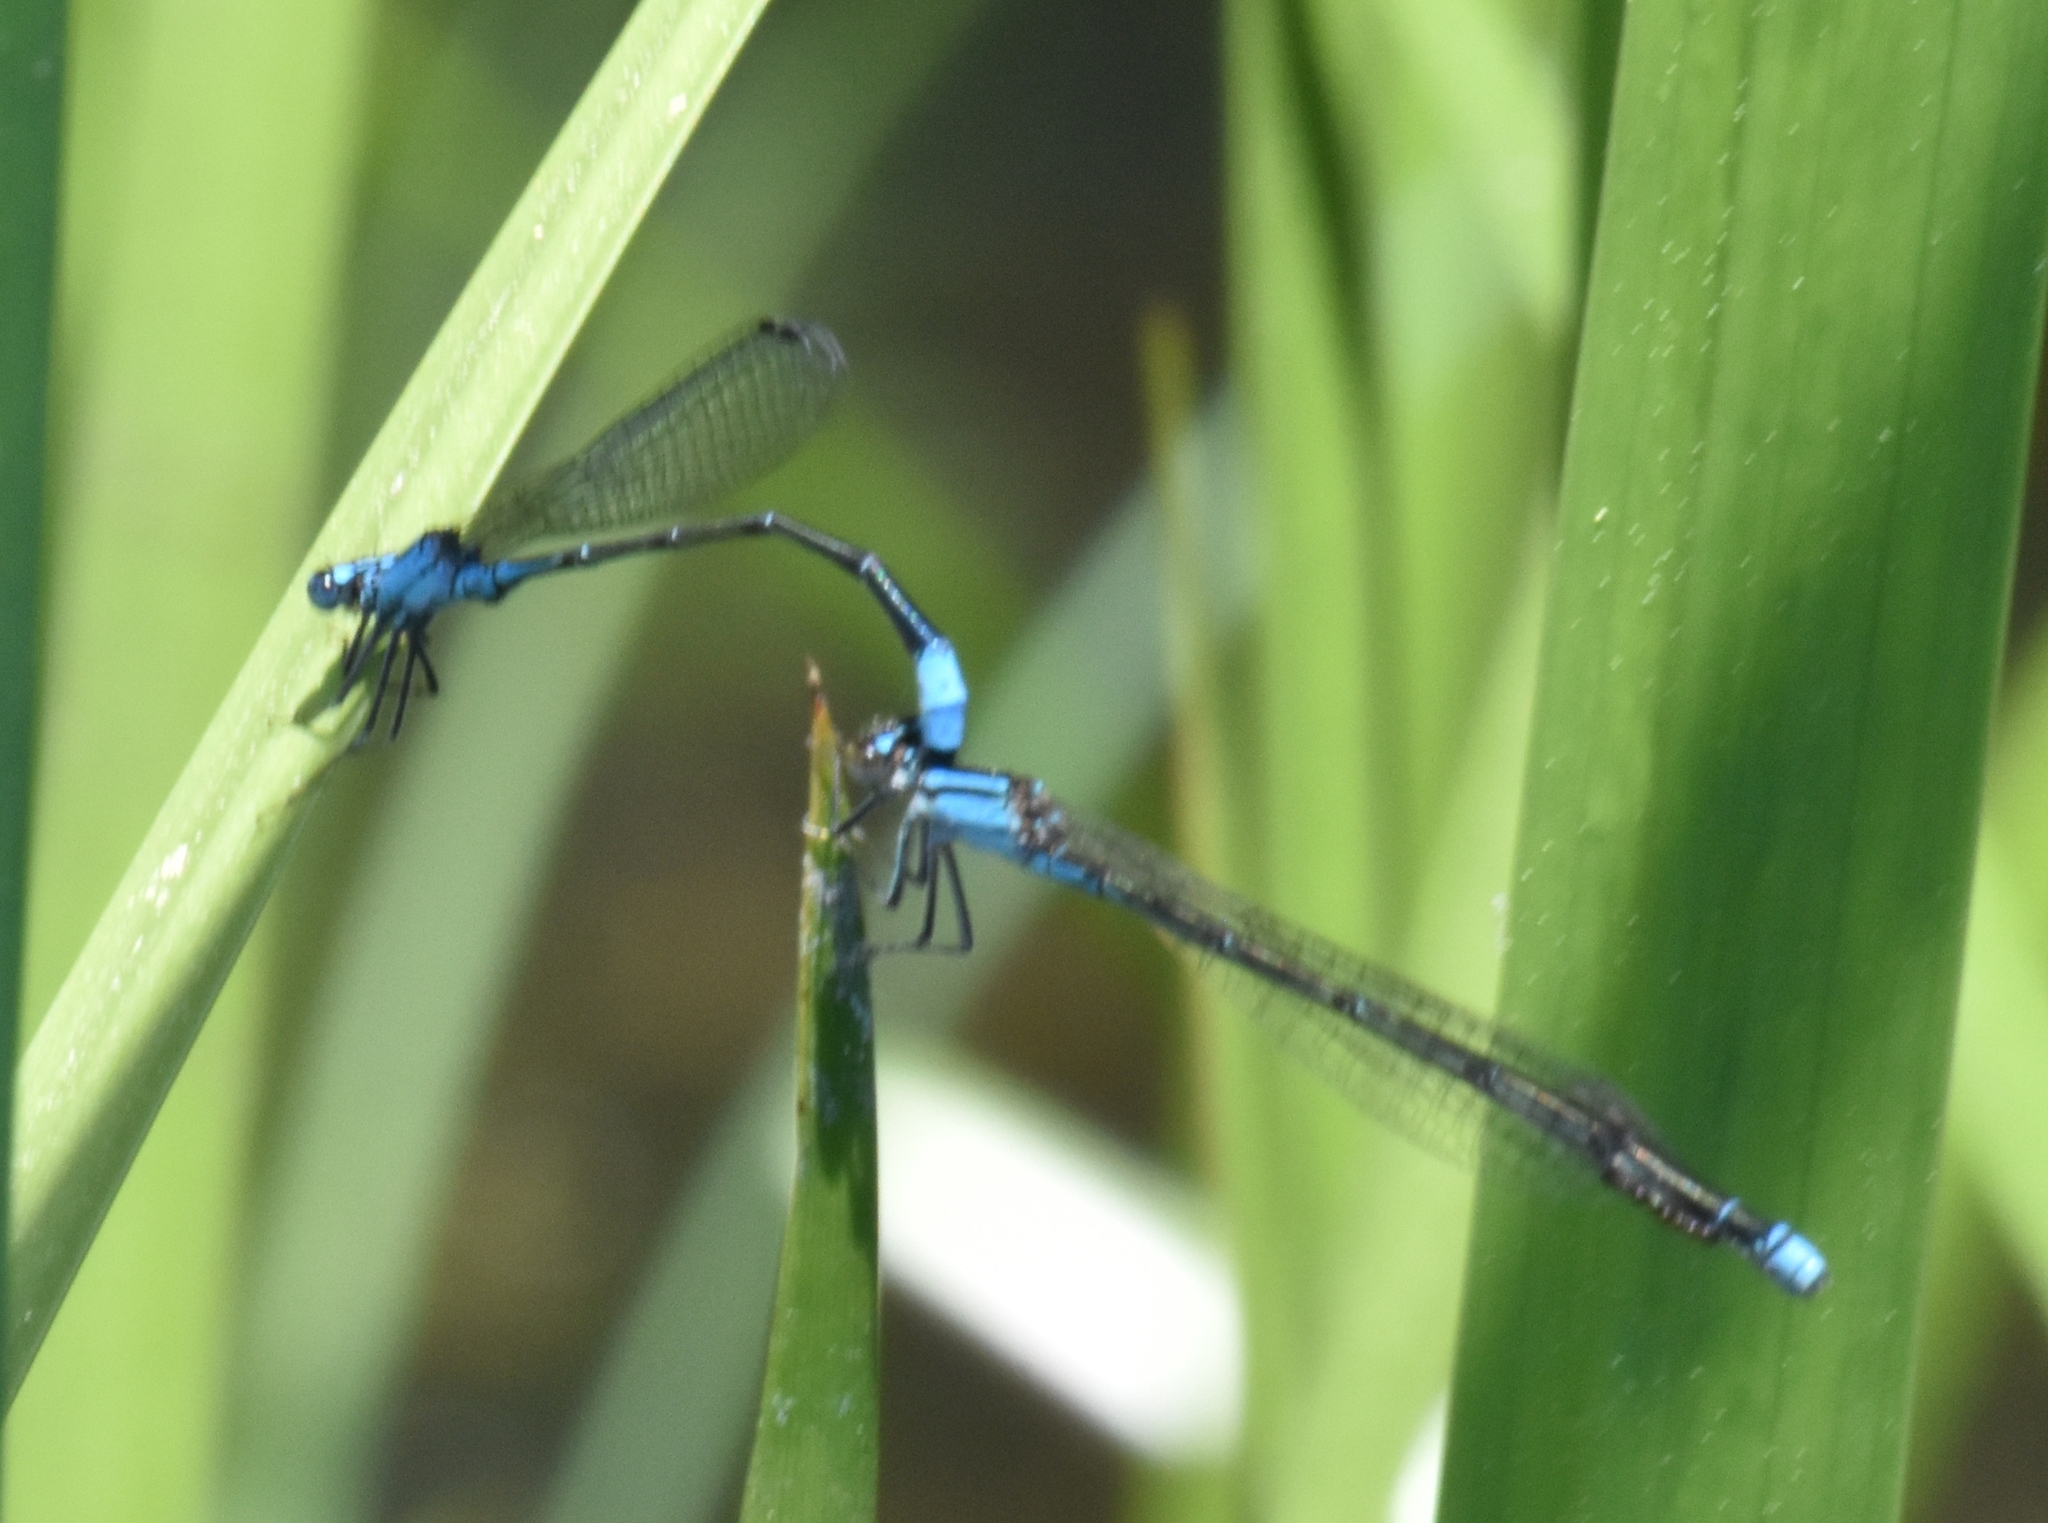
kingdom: Animalia
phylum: Arthropoda
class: Insecta
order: Odonata
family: Coenagrionidae
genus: Enallagma
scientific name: Enallagma divagans
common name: Turquoise bluet
